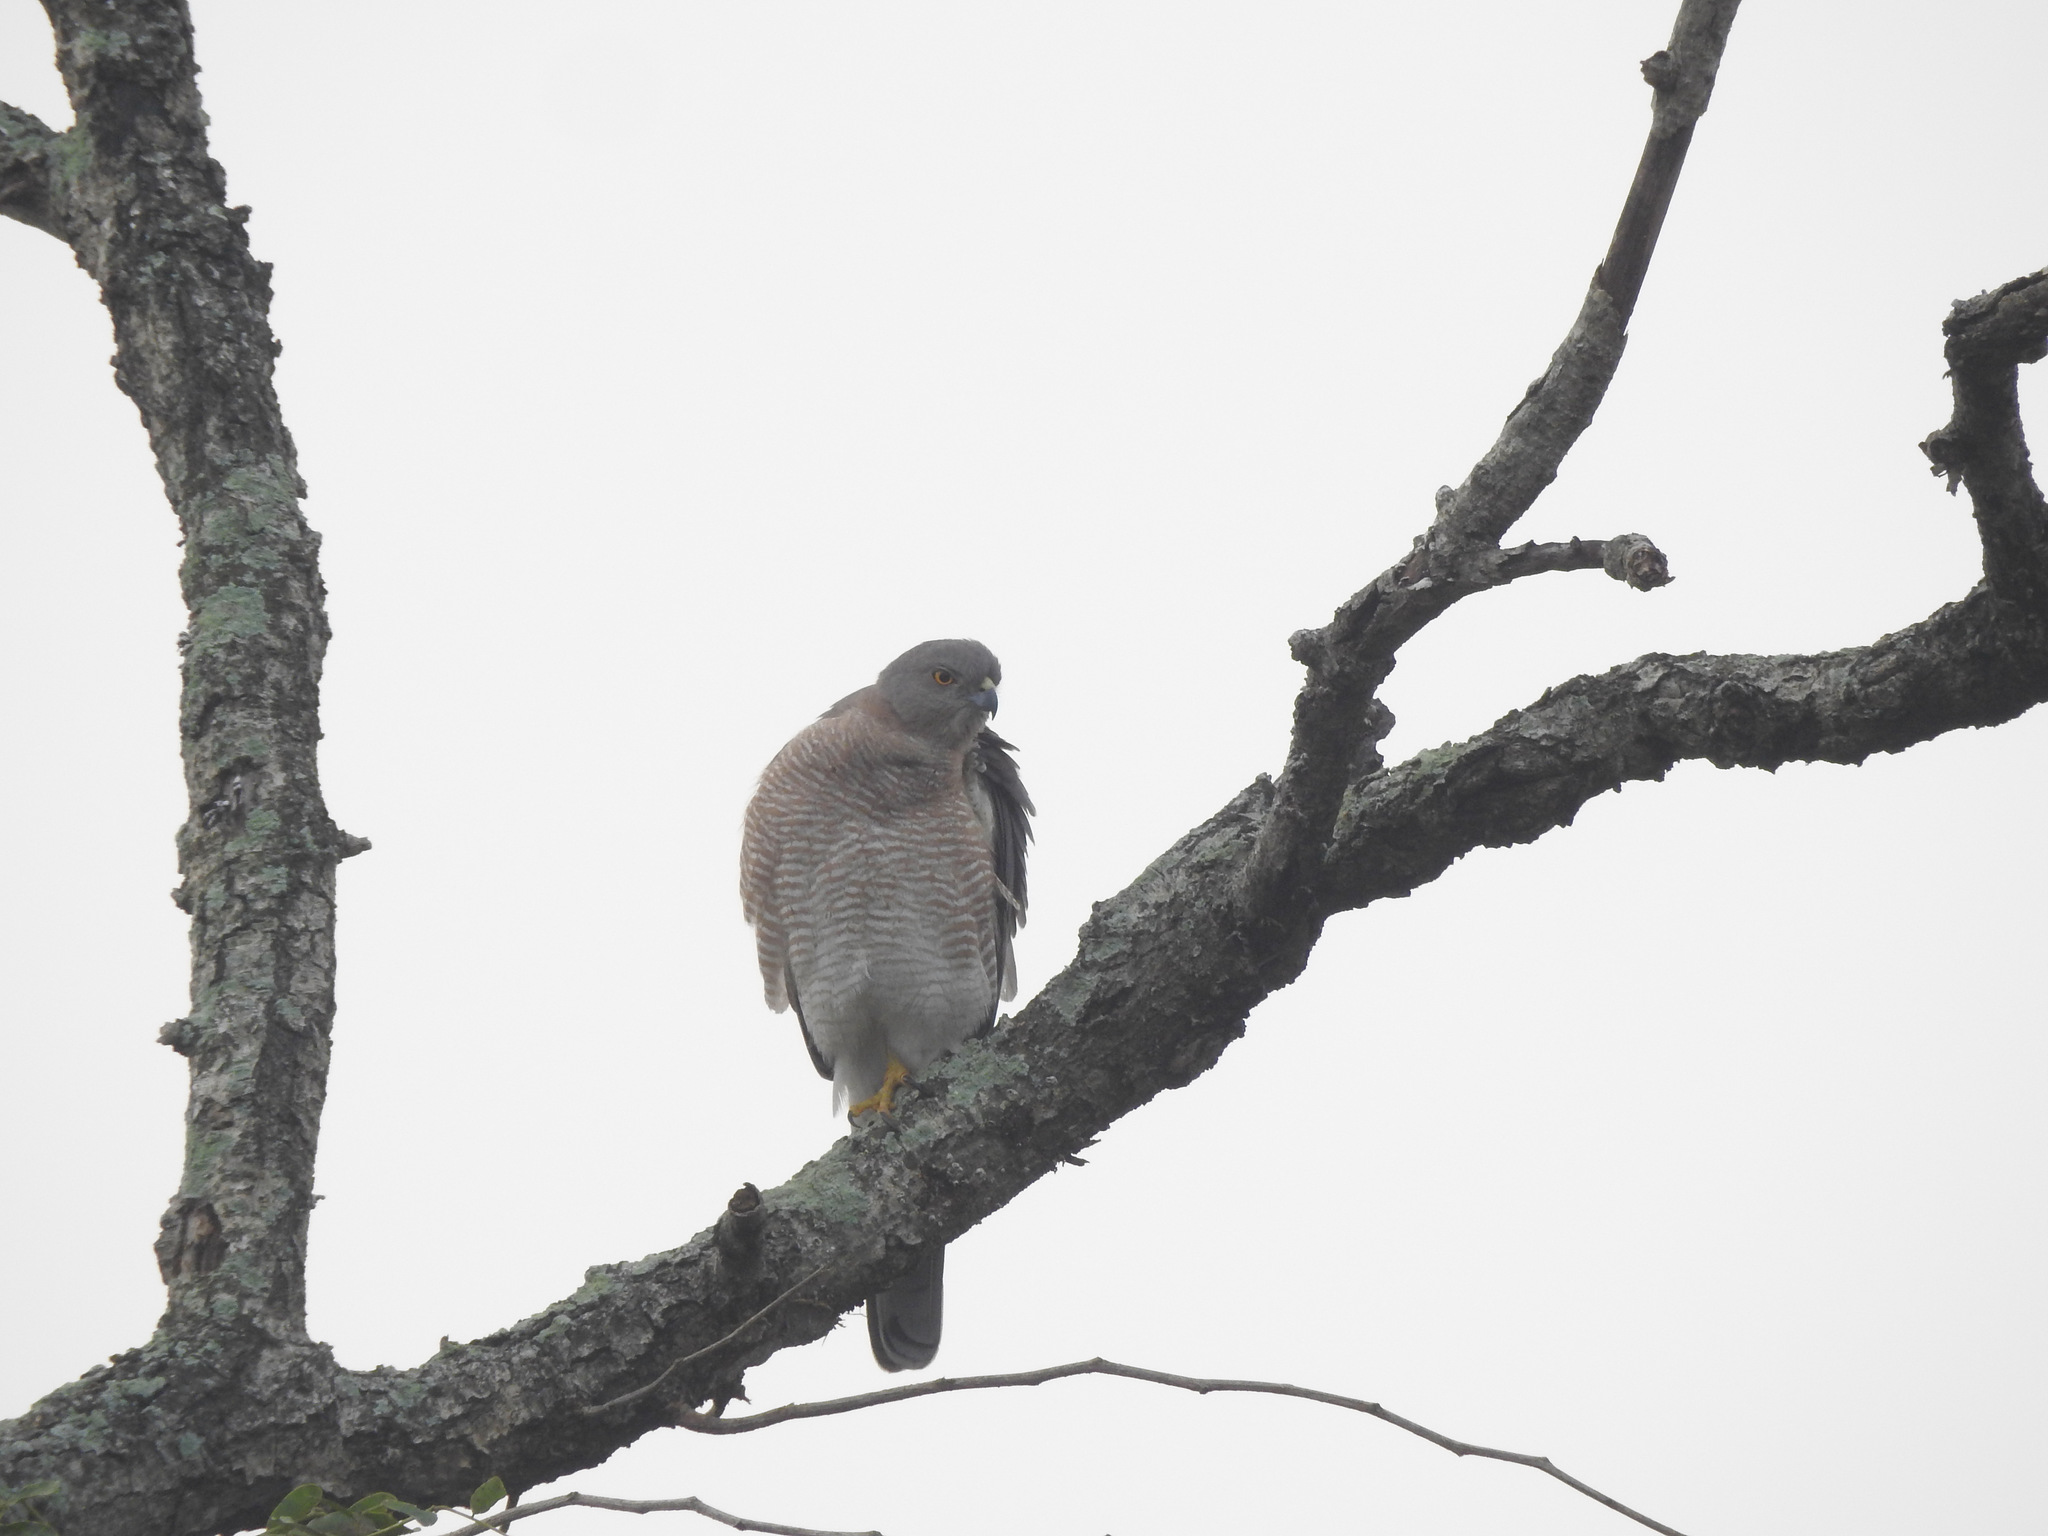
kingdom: Animalia
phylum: Chordata
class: Aves
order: Accipitriformes
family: Accipitridae
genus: Accipiter
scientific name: Accipiter badius
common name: Shikra
